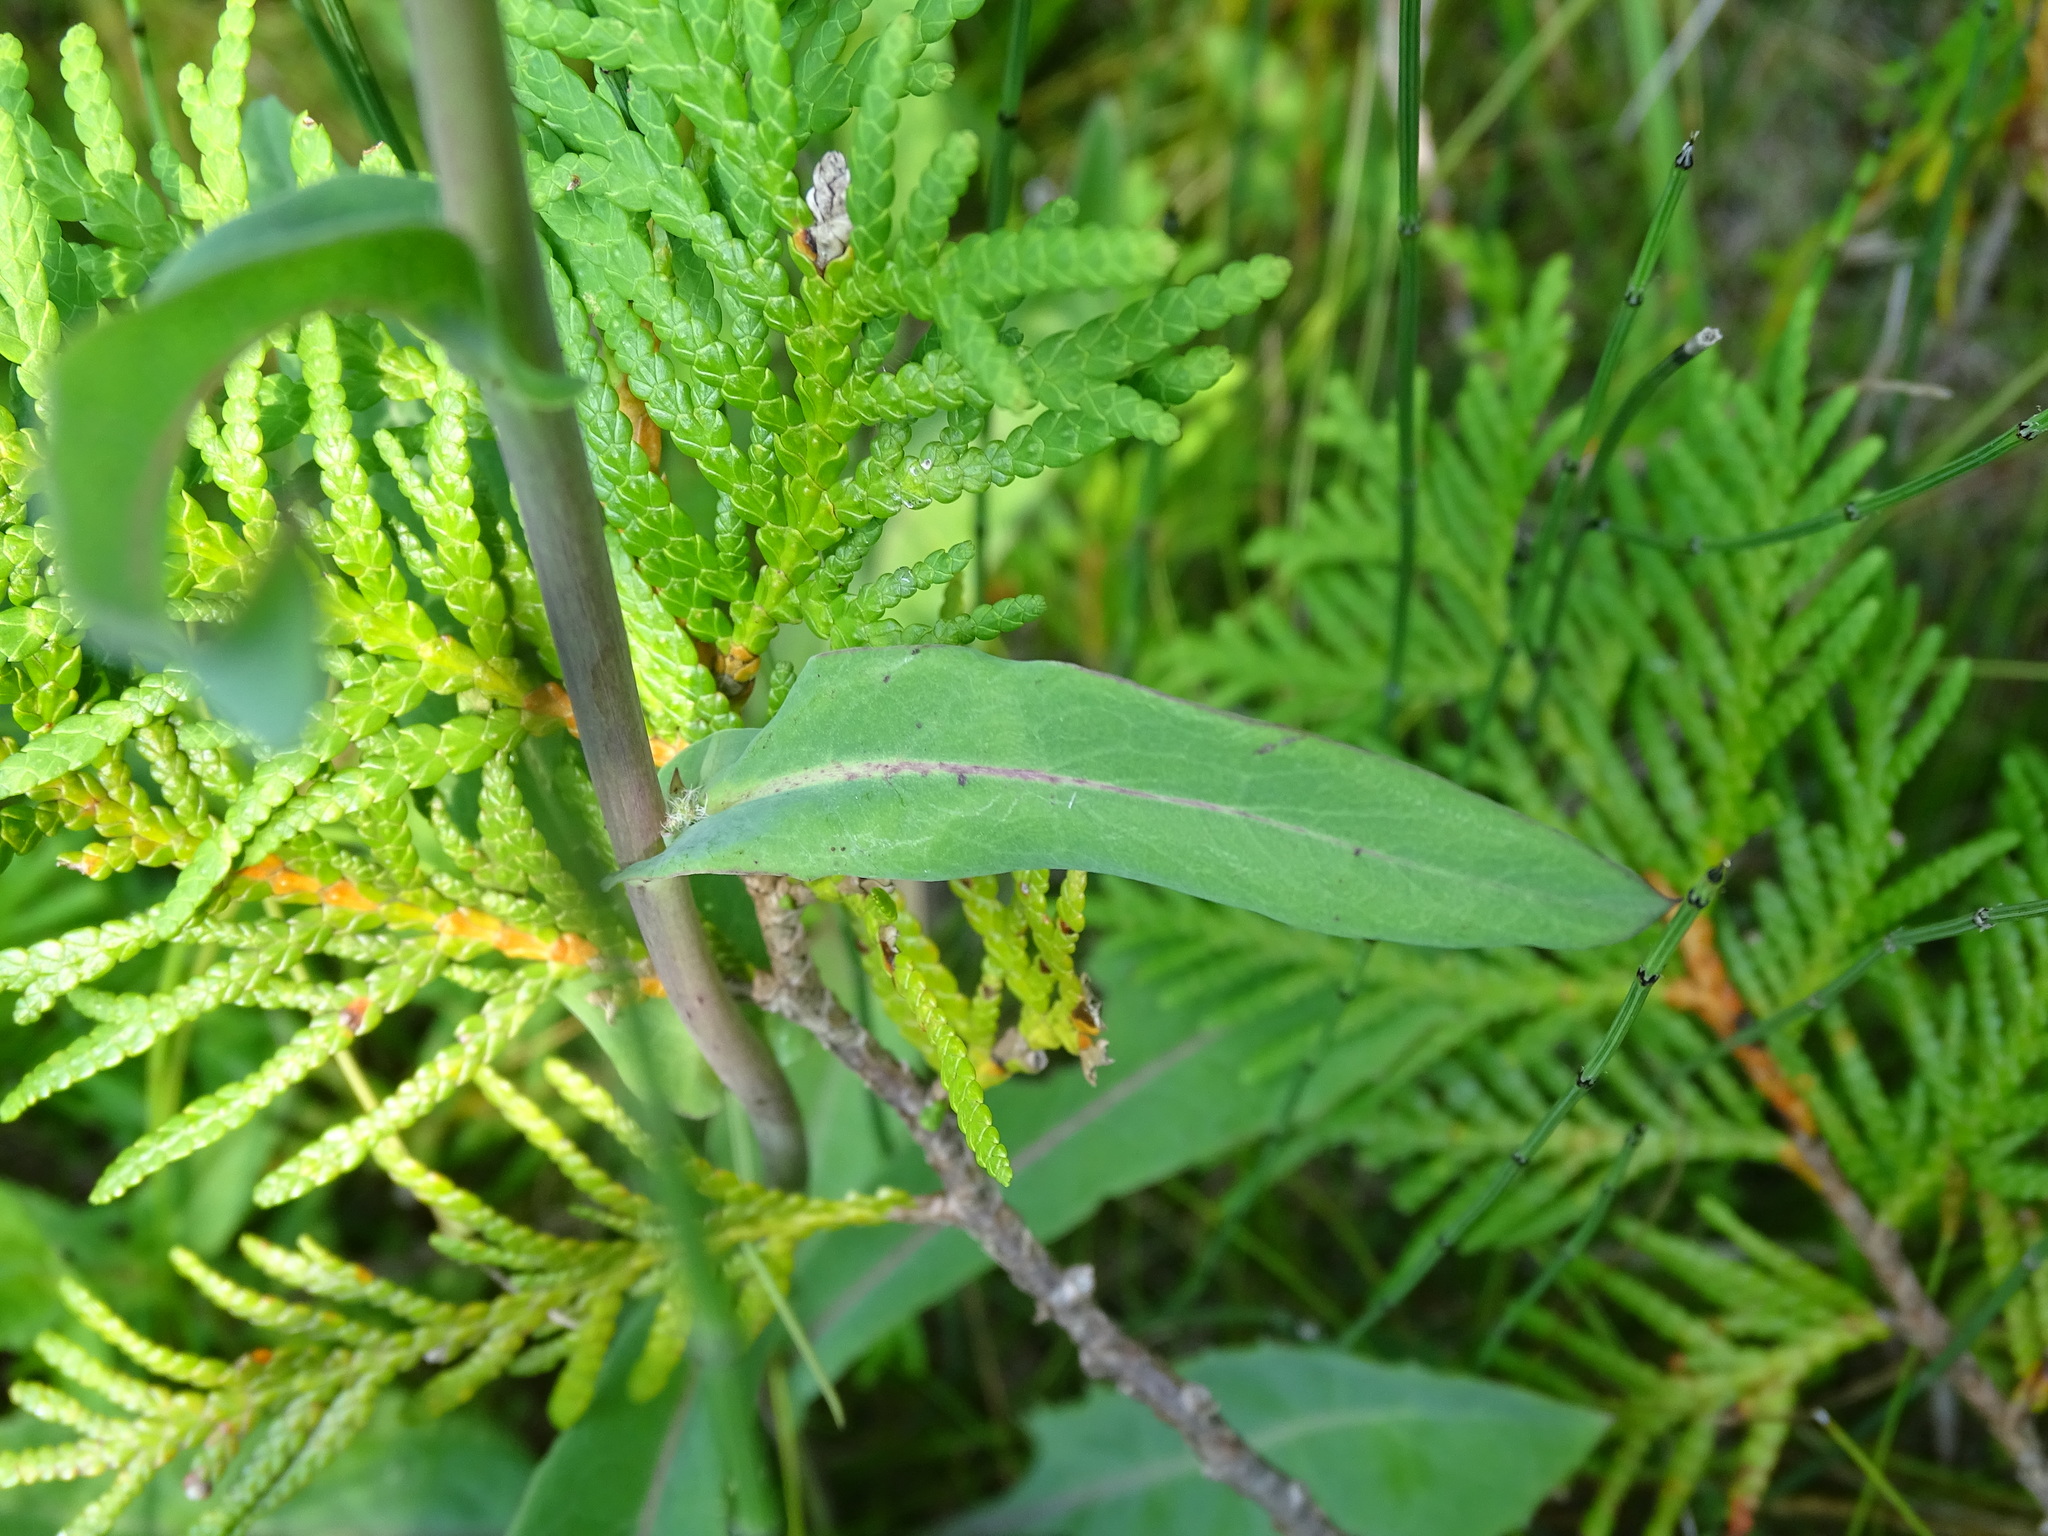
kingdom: Plantae
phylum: Tracheophyta
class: Magnoliopsida
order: Asterales
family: Asteraceae
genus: Nabalus
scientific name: Nabalus racemosus
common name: Glaucous white lettuce
